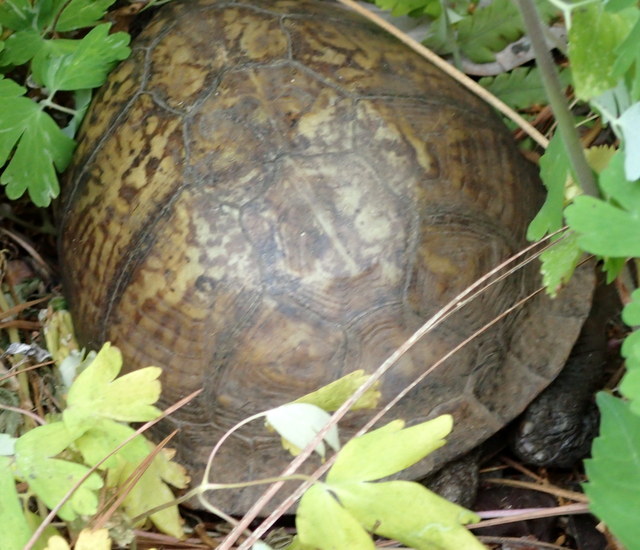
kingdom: Animalia
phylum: Chordata
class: Testudines
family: Emydidae
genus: Terrapene
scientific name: Terrapene carolina
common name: Common box turtle
